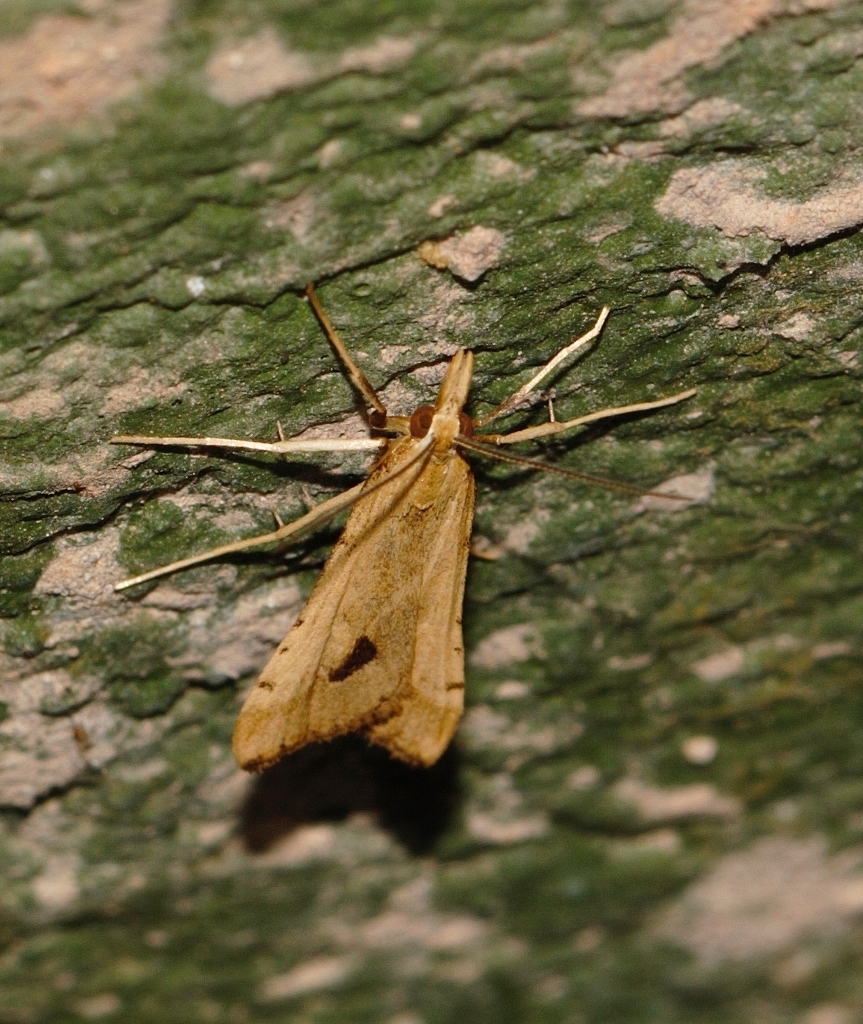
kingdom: Animalia
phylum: Arthropoda
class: Insecta
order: Lepidoptera
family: Crambidae
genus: Diasemia
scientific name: Diasemia monostigma
